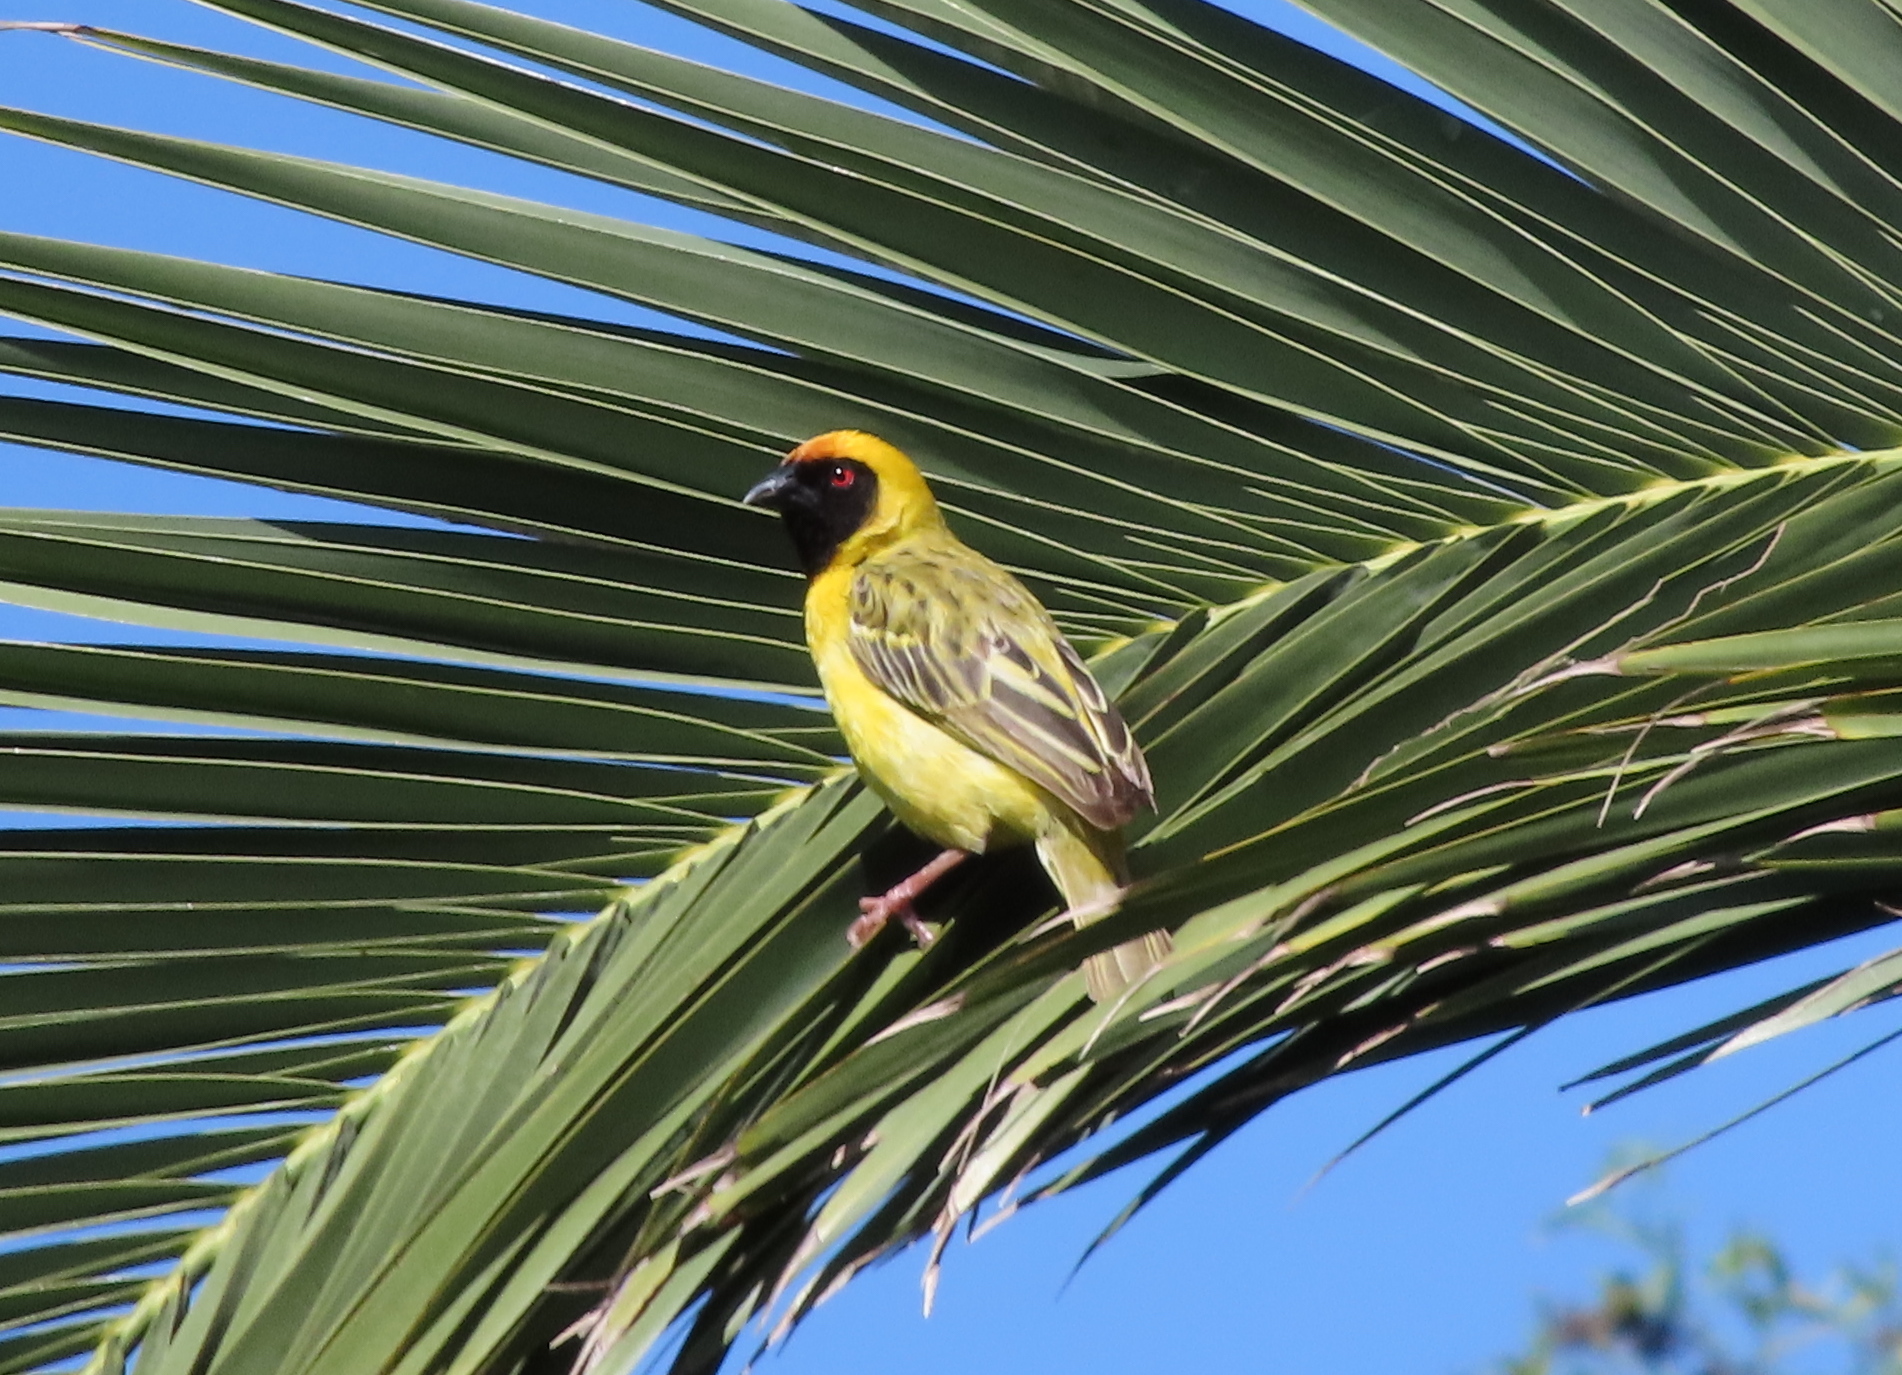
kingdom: Animalia
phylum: Chordata
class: Aves
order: Passeriformes
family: Ploceidae
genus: Ploceus
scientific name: Ploceus velatus
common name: Southern masked weaver
